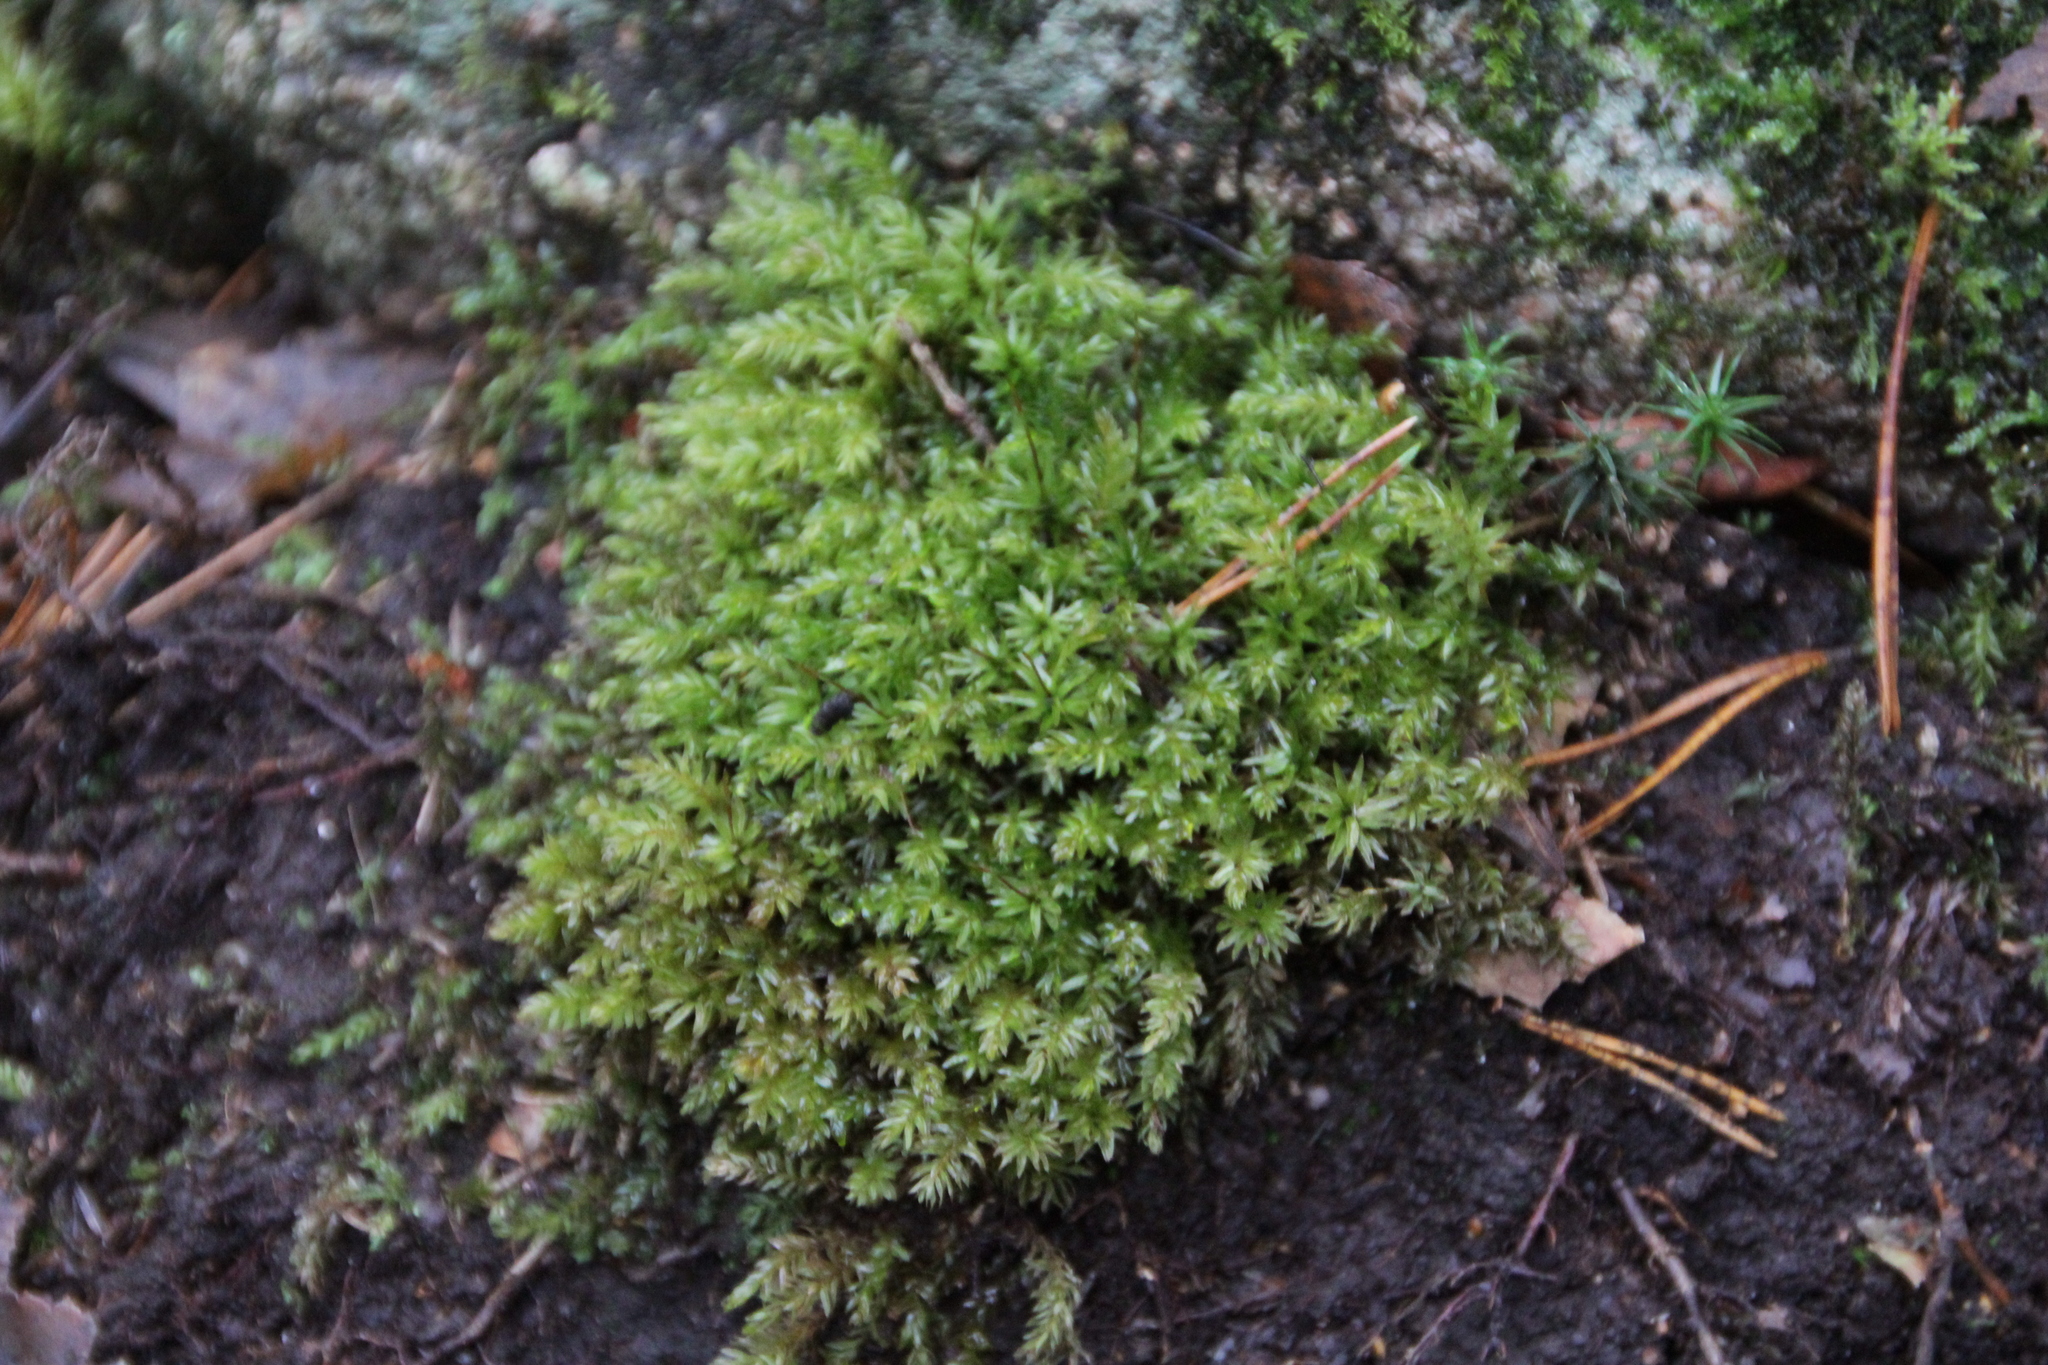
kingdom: Plantae
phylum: Bryophyta
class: Bryopsida
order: Bryales
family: Mniaceae
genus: Mnium
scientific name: Mnium hornum
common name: Swan's-neck leafy moss
